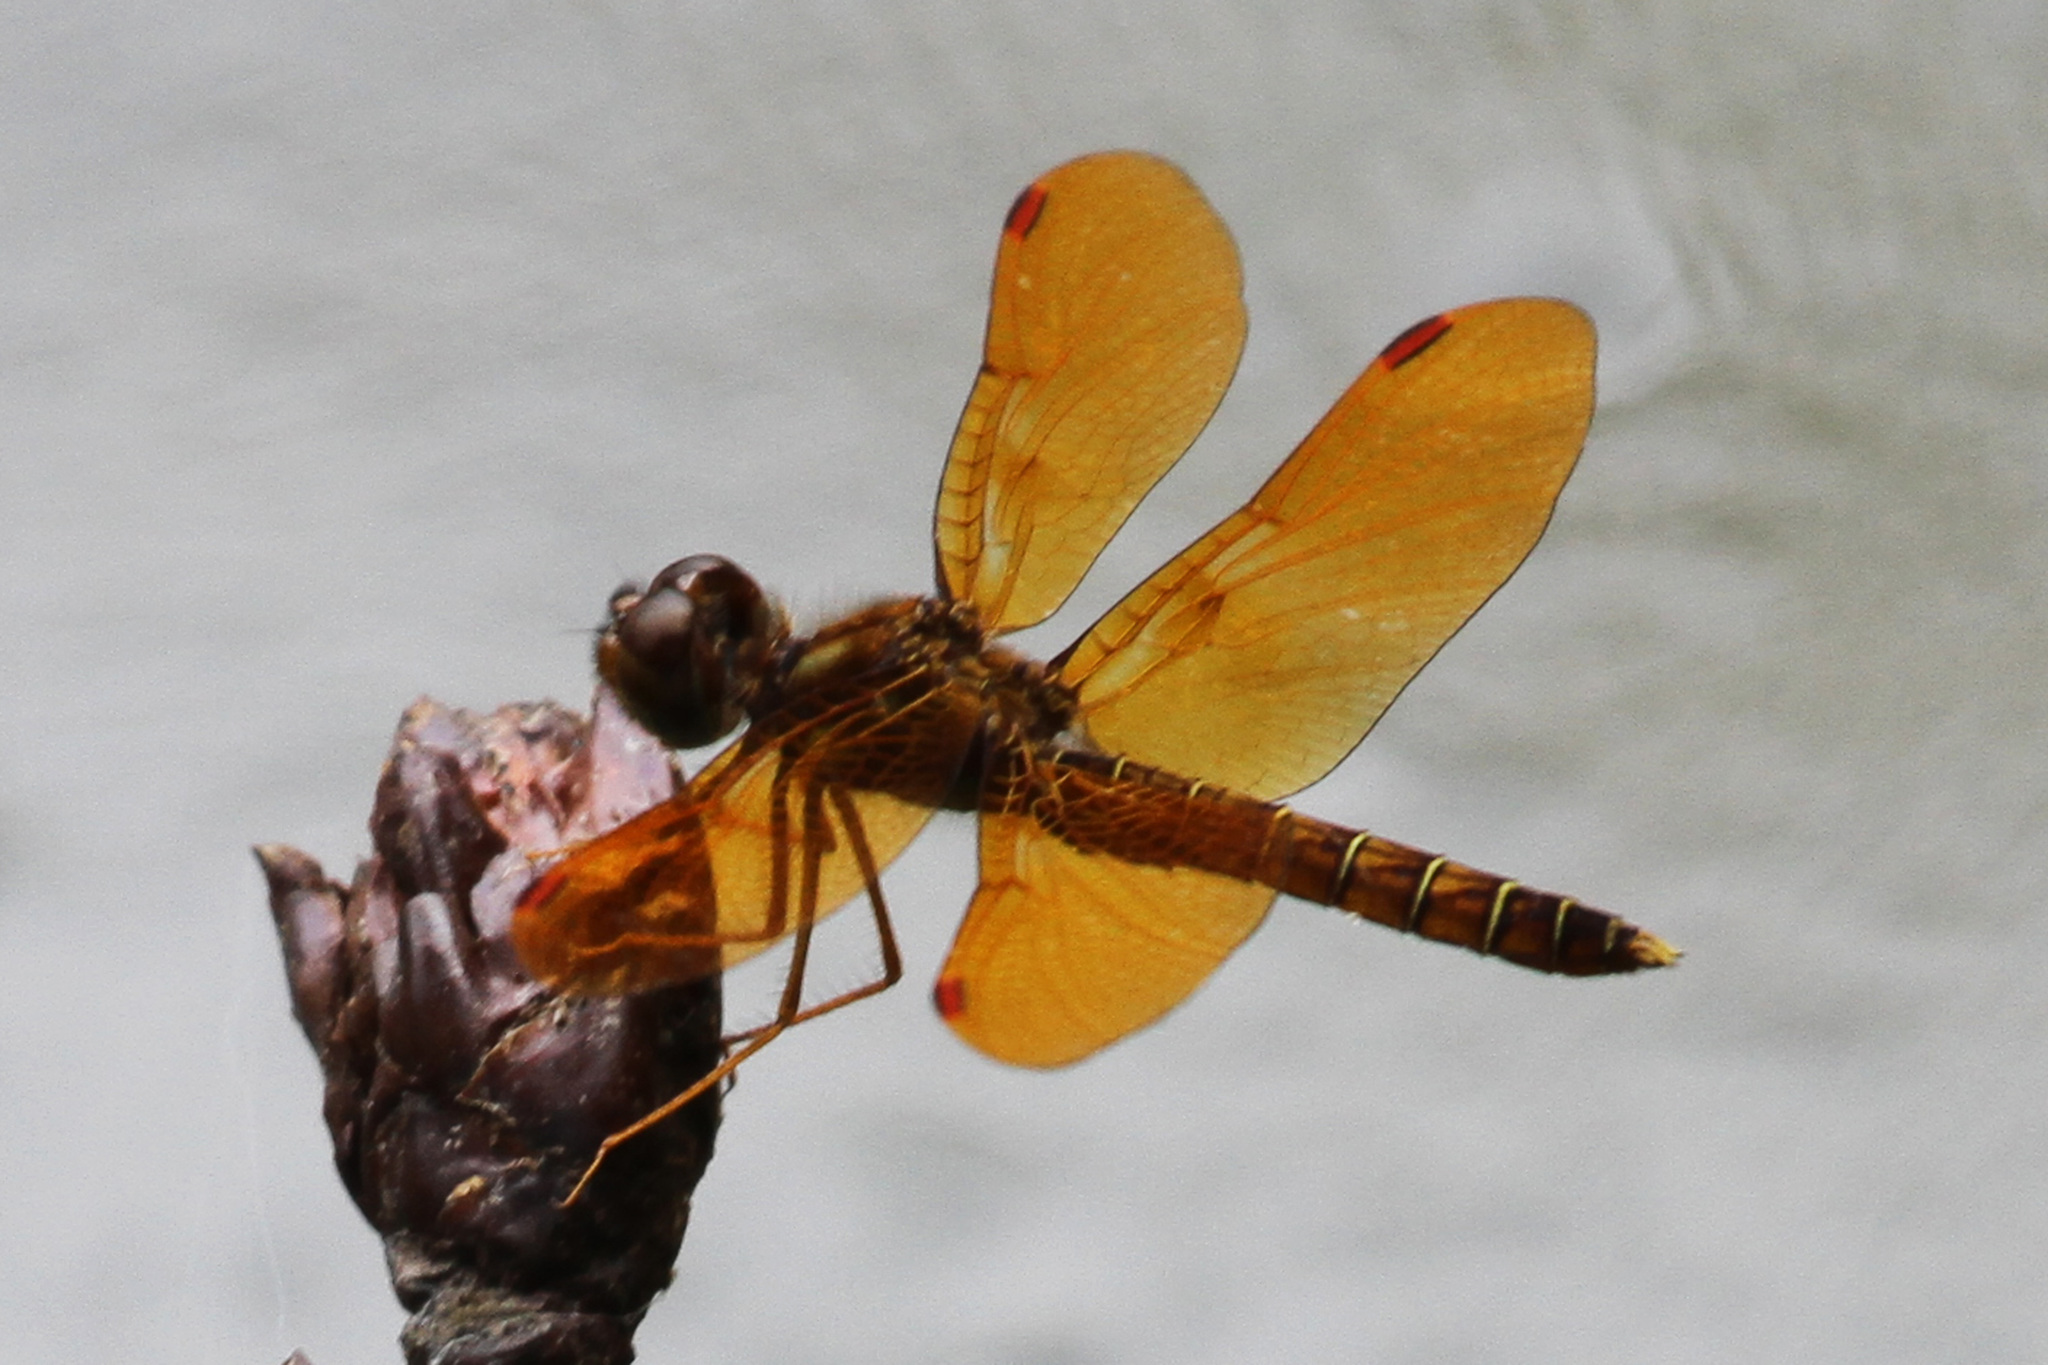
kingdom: Animalia
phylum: Arthropoda
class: Insecta
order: Odonata
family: Libellulidae
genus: Perithemis
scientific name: Perithemis tenera
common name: Eastern amberwing
